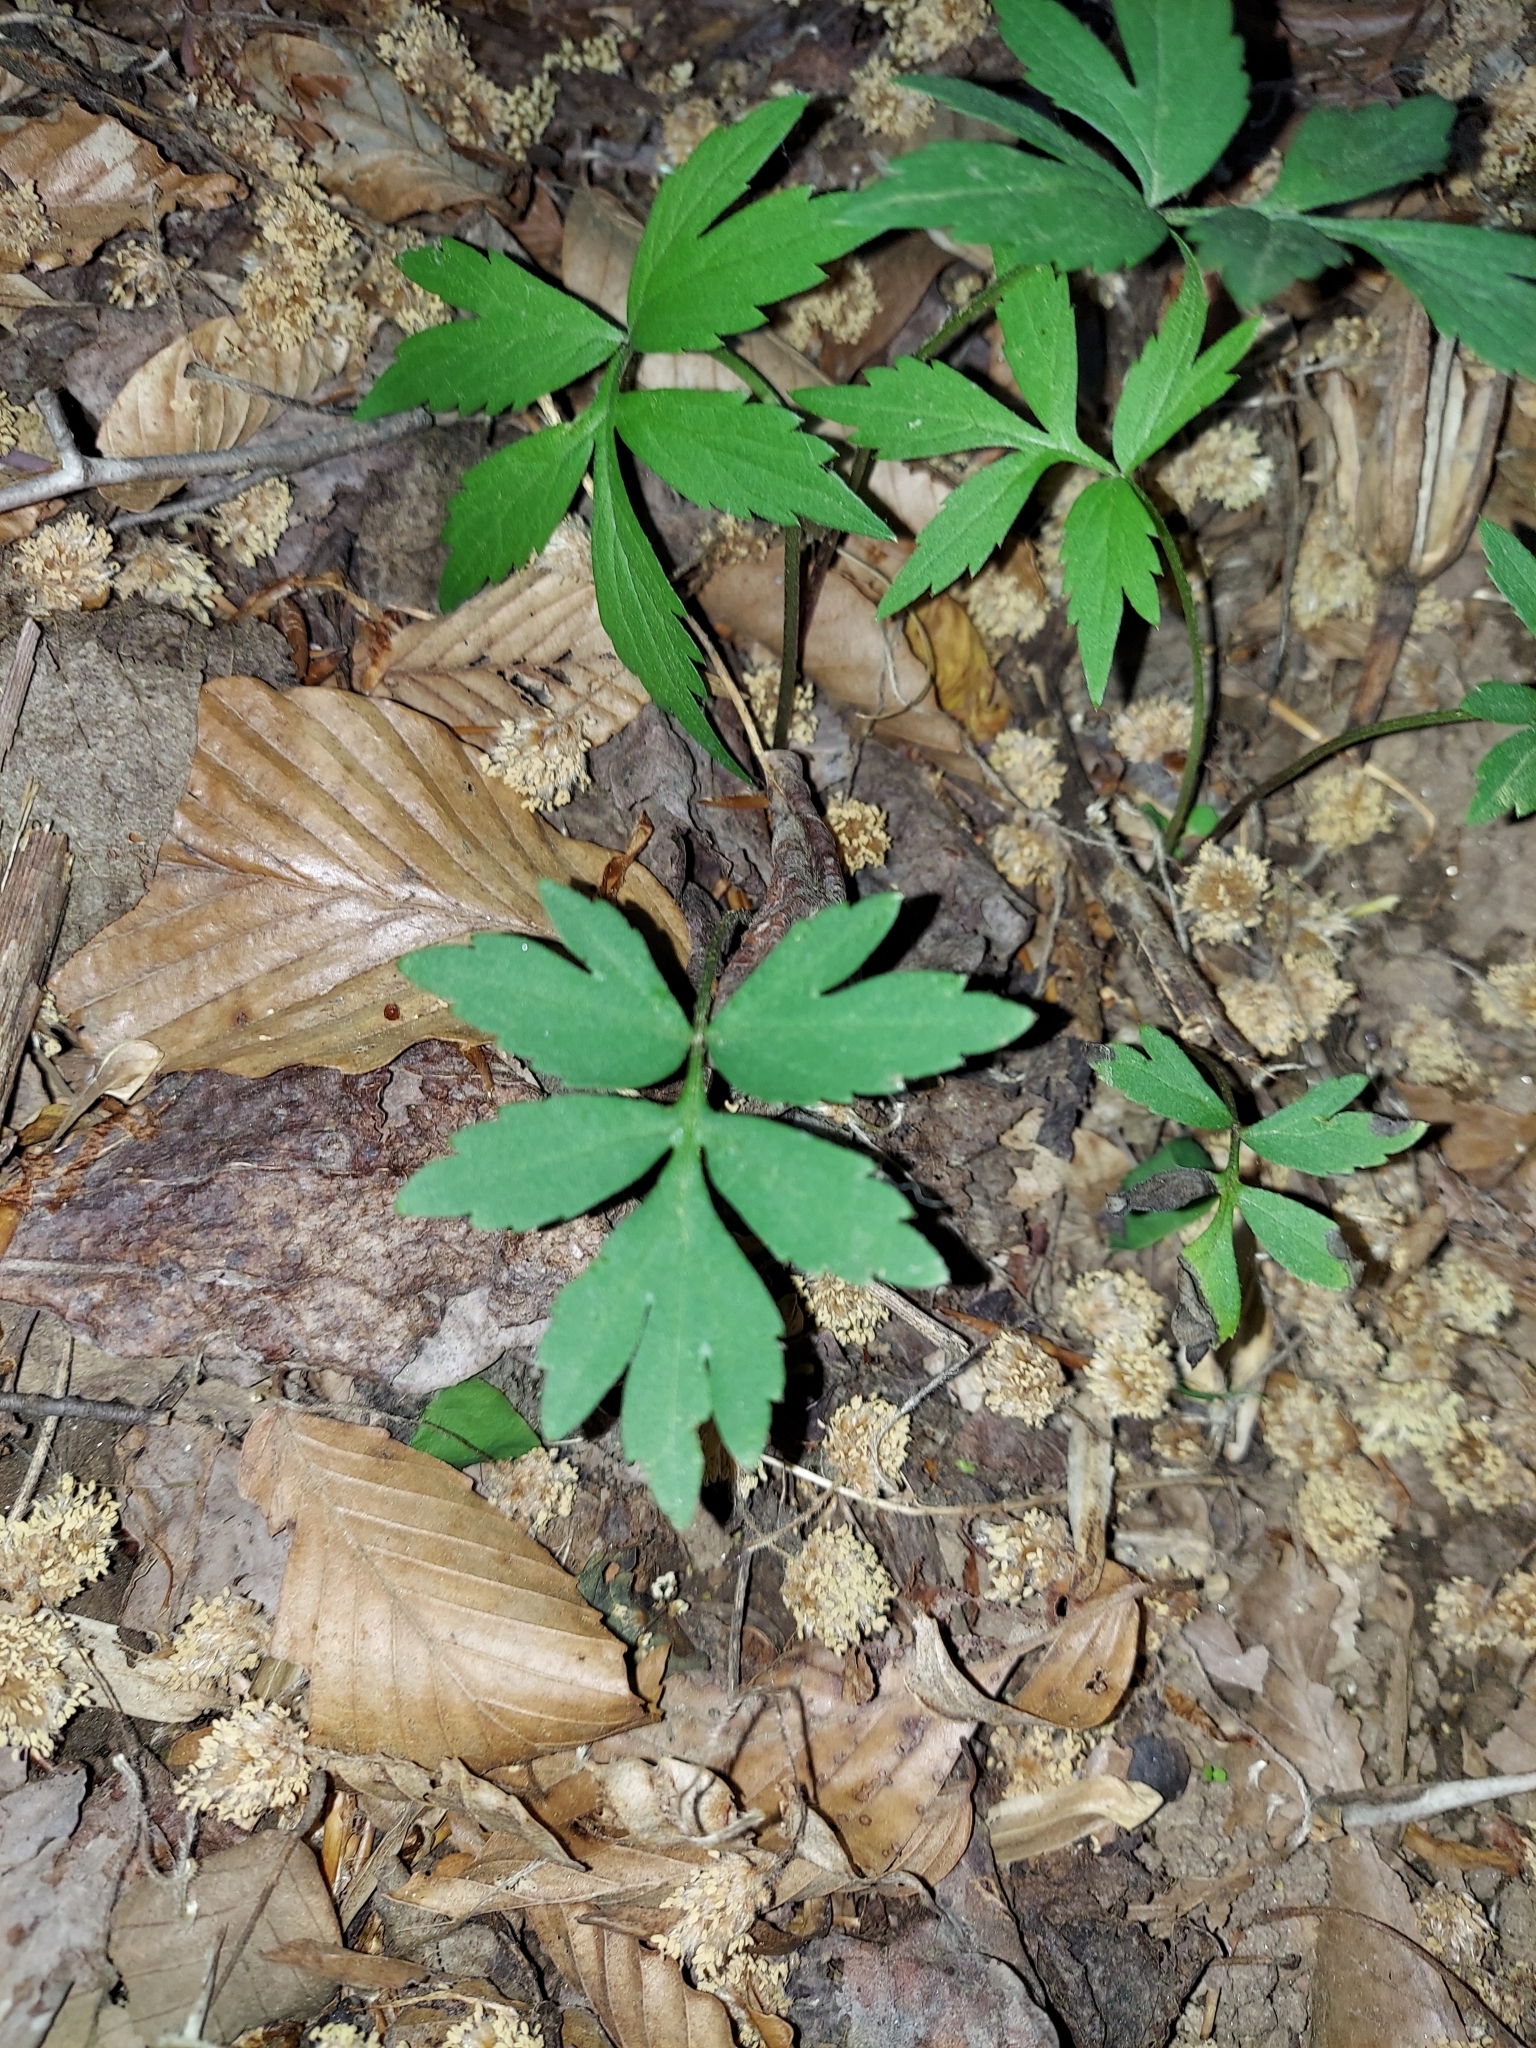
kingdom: Plantae
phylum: Tracheophyta
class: Magnoliopsida
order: Boraginales
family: Hydrophyllaceae
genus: Hydrophyllum
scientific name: Hydrophyllum virginianum
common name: Virginia waterleaf
